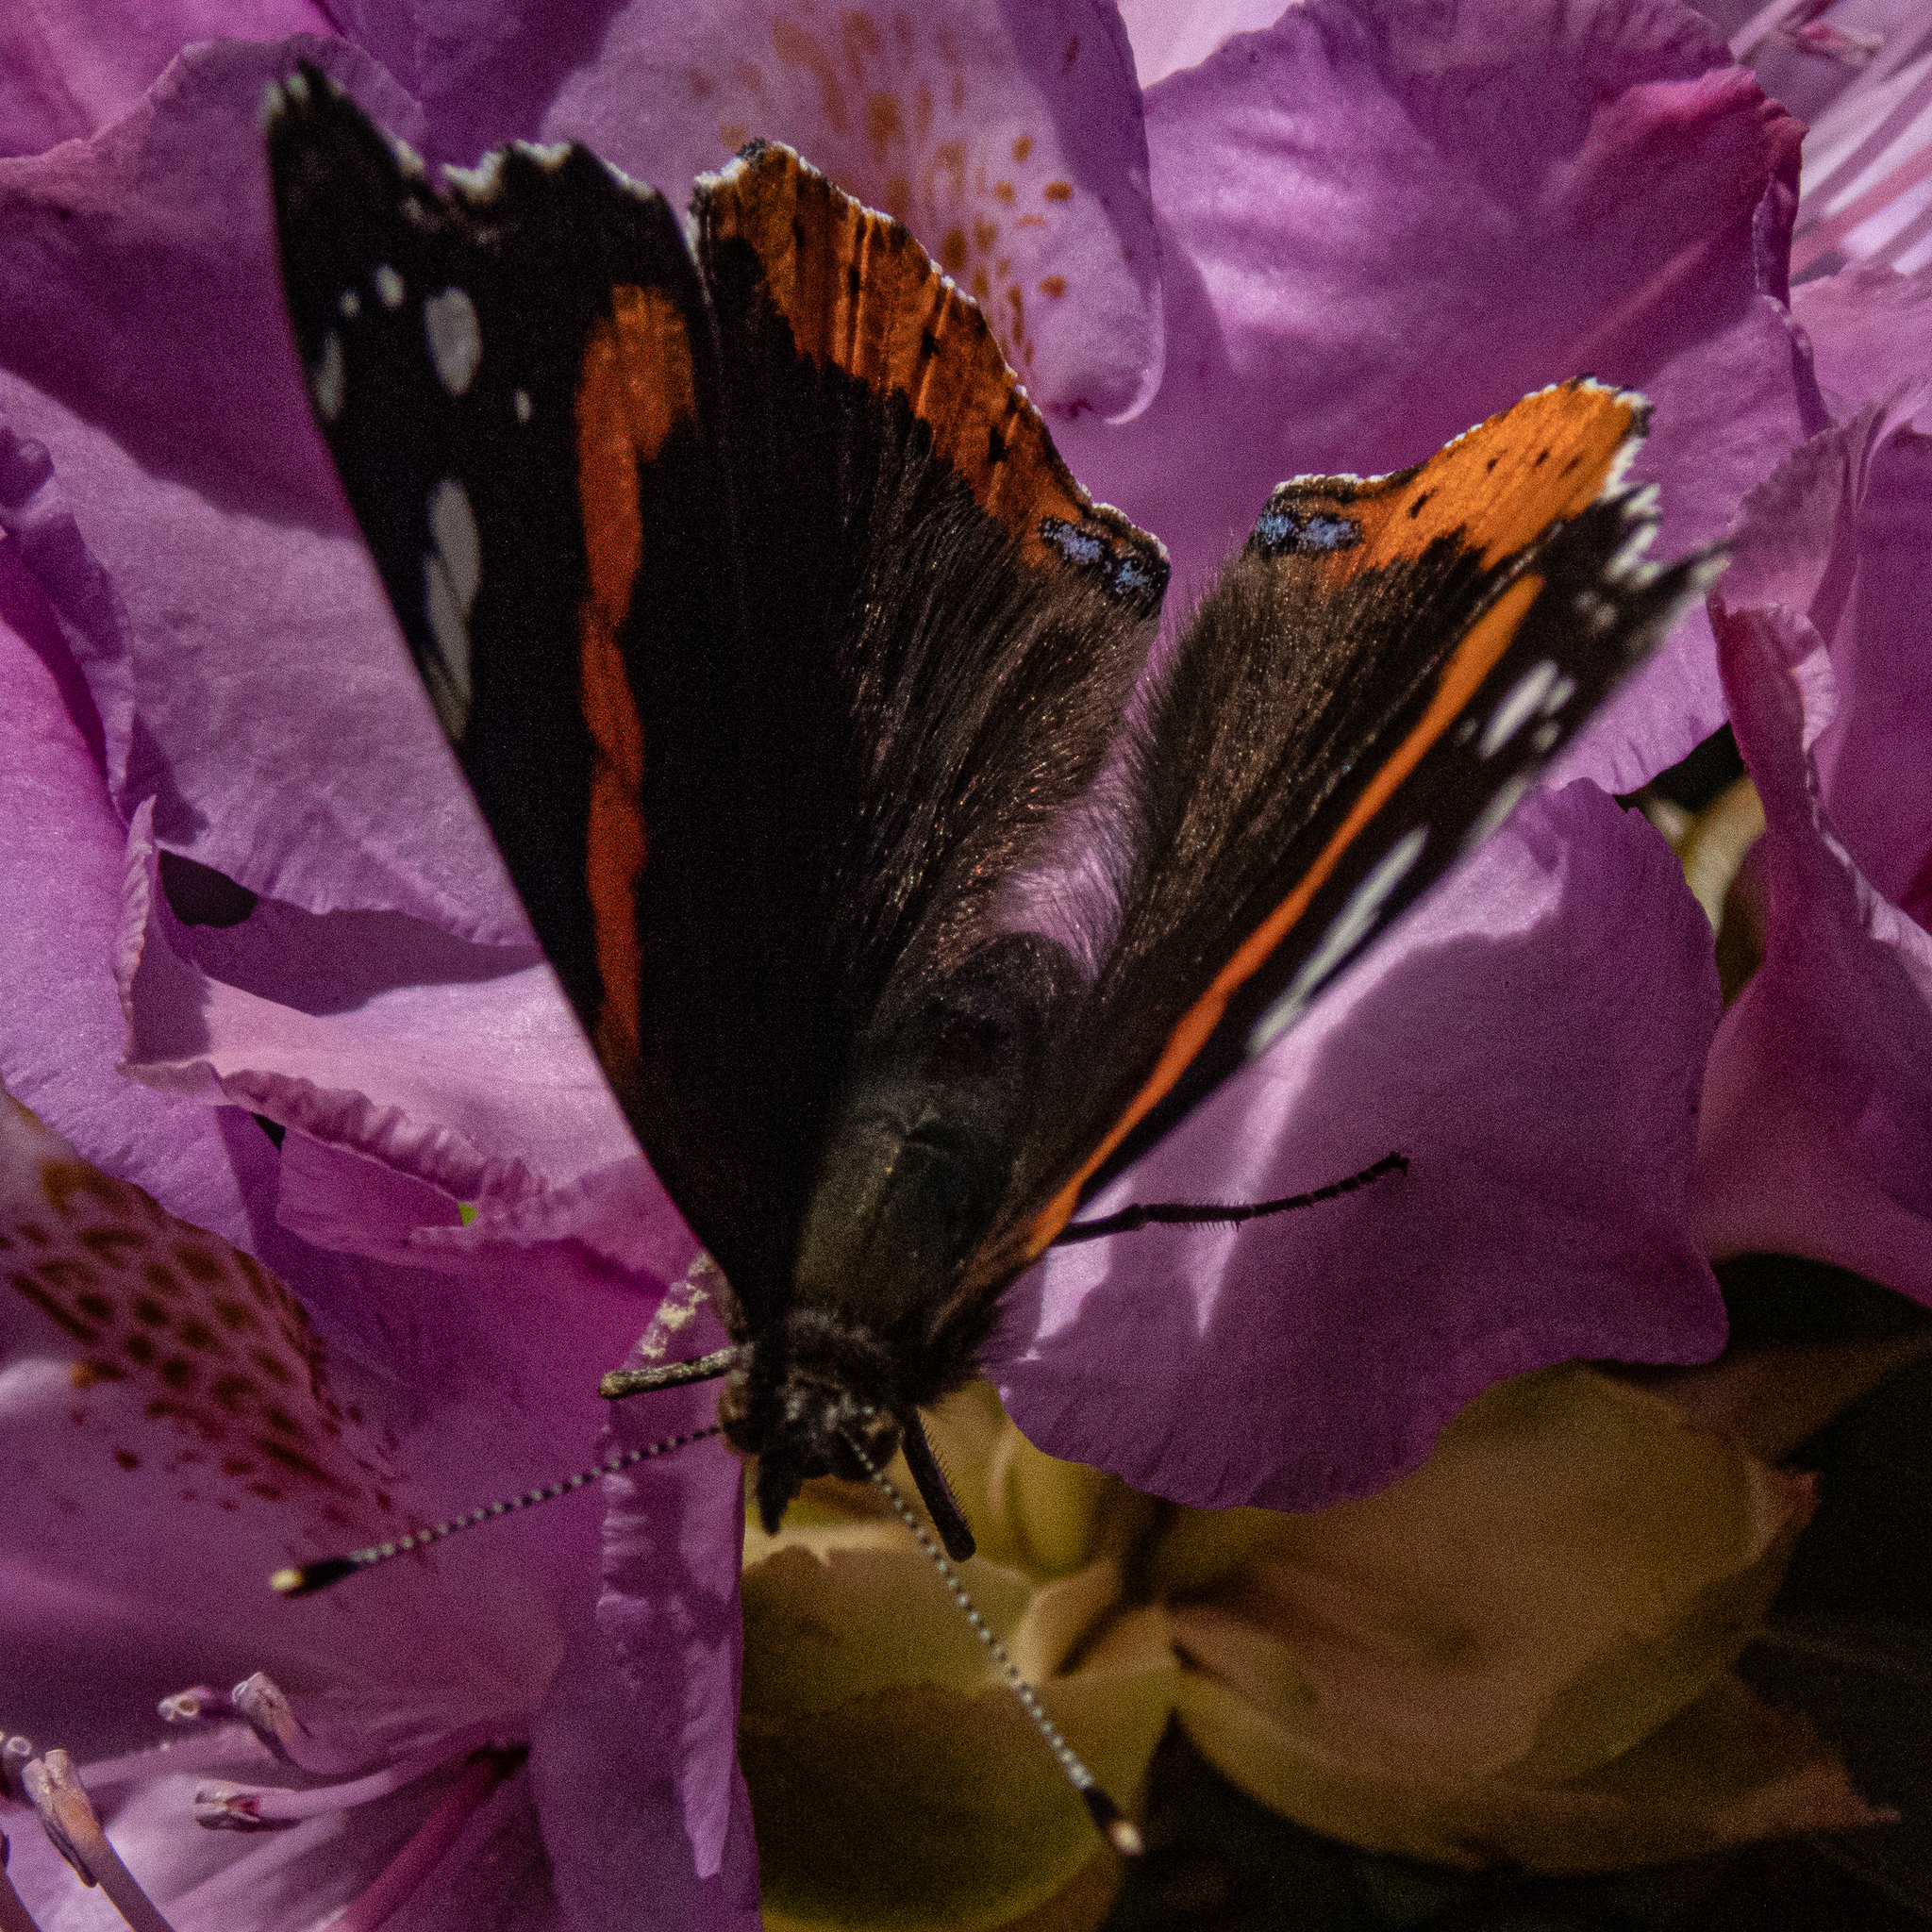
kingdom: Animalia
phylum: Arthropoda
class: Insecta
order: Lepidoptera
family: Nymphalidae
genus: Vanessa
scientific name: Vanessa atalanta
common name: Red admiral
